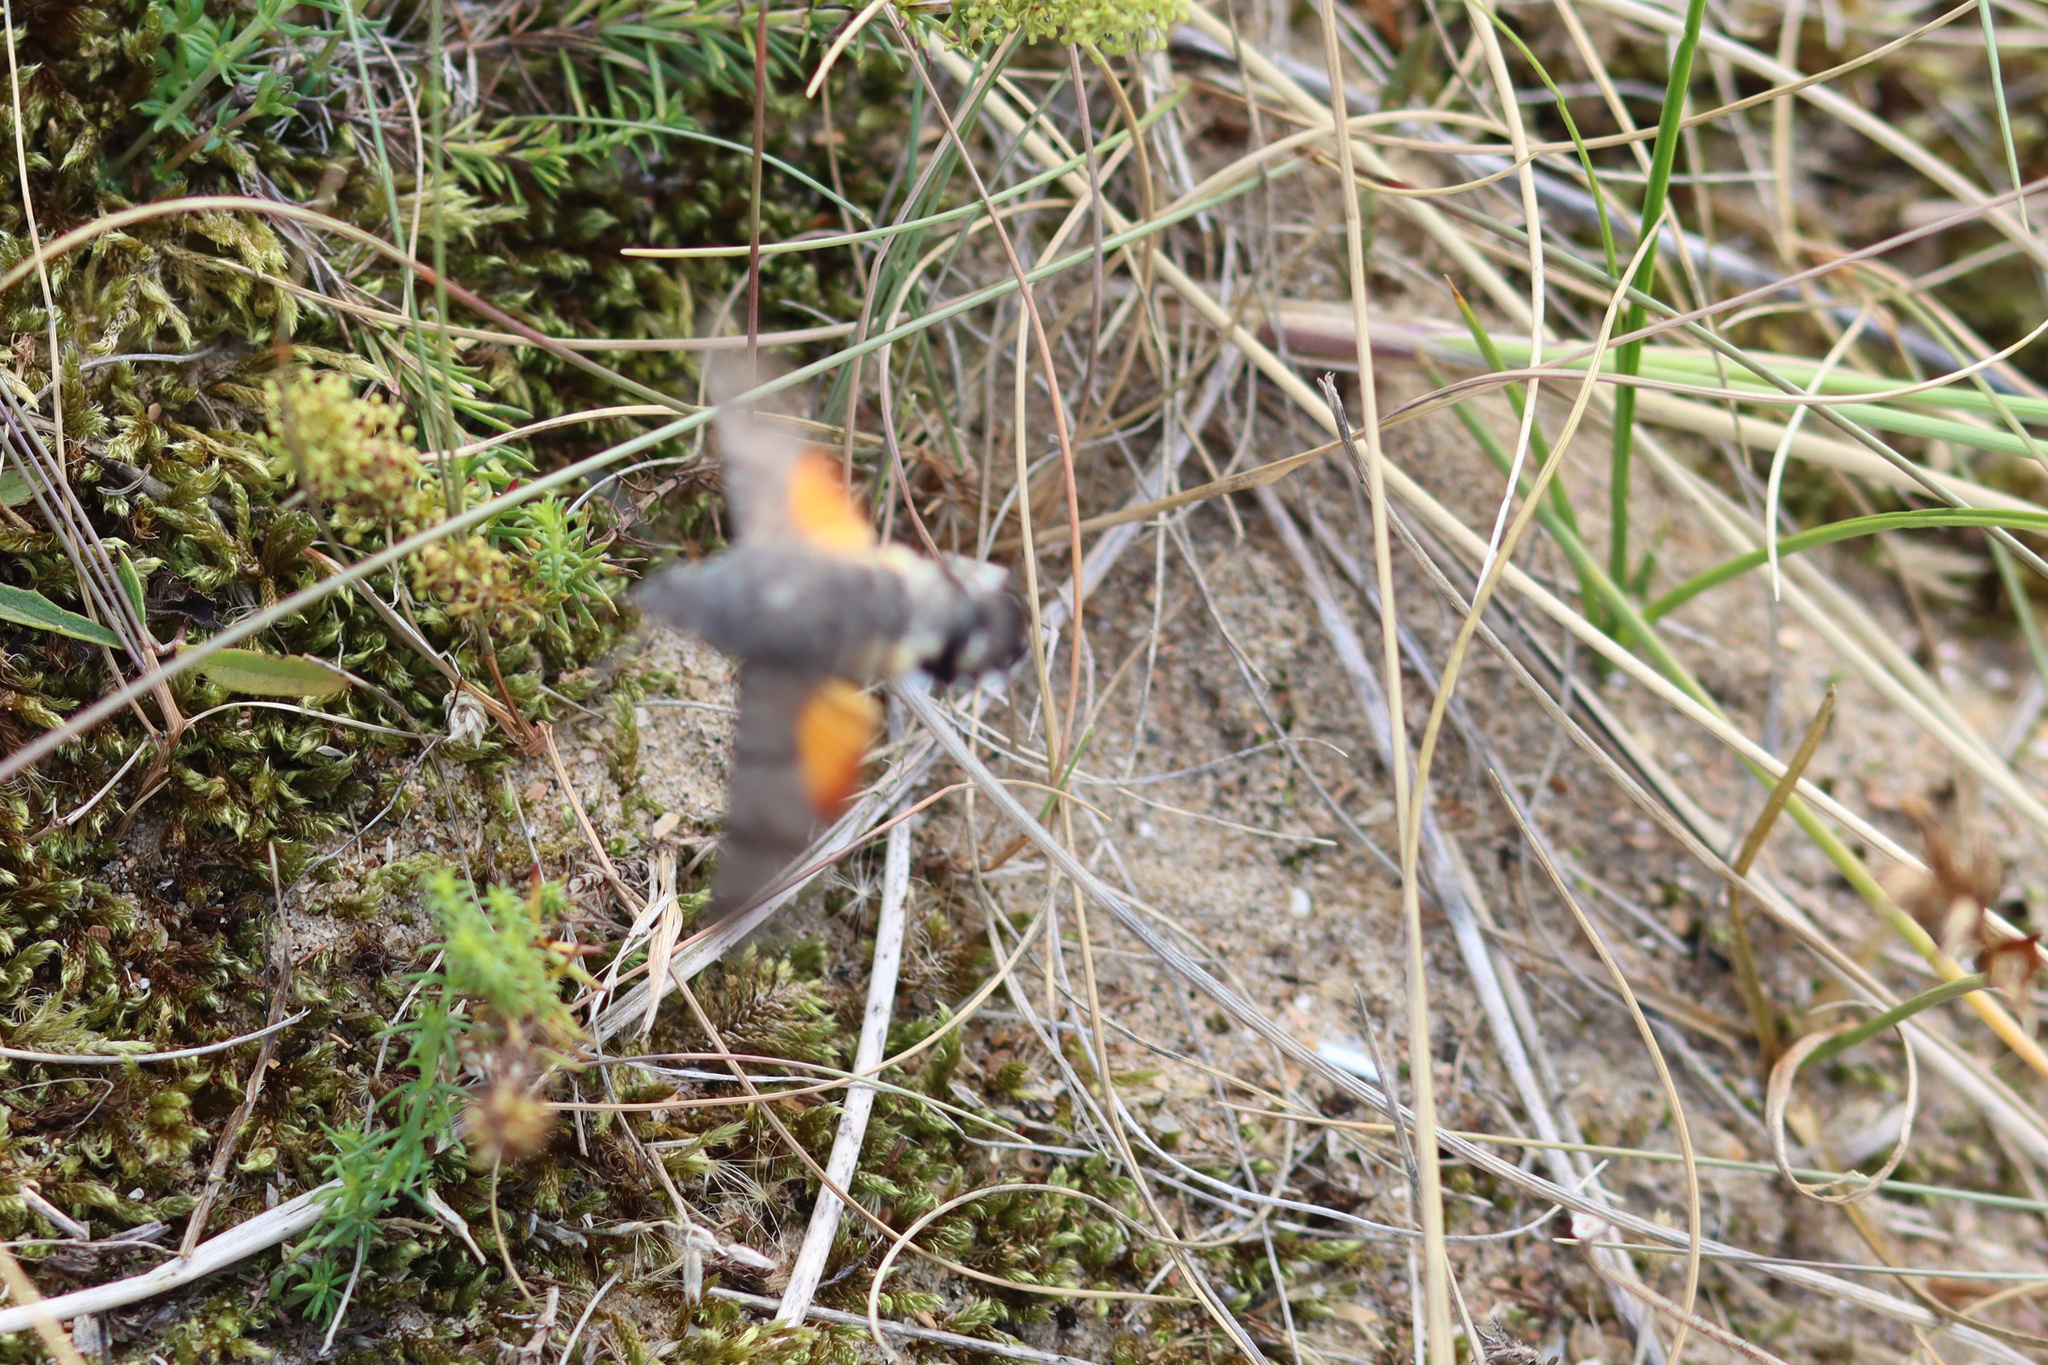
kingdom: Animalia
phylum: Arthropoda
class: Insecta
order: Lepidoptera
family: Sphingidae
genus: Macroglossum
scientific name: Macroglossum stellatarum
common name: Humming-bird hawk-moth
